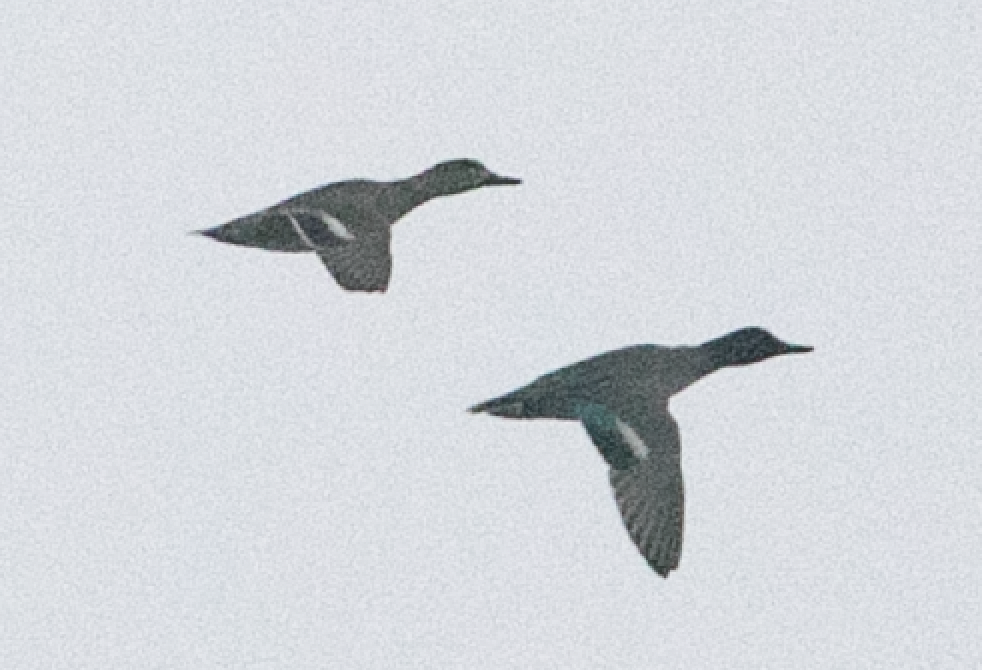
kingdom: Animalia
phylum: Chordata
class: Aves
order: Anseriformes
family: Anatidae
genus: Anas
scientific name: Anas crecca
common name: Eurasian teal
